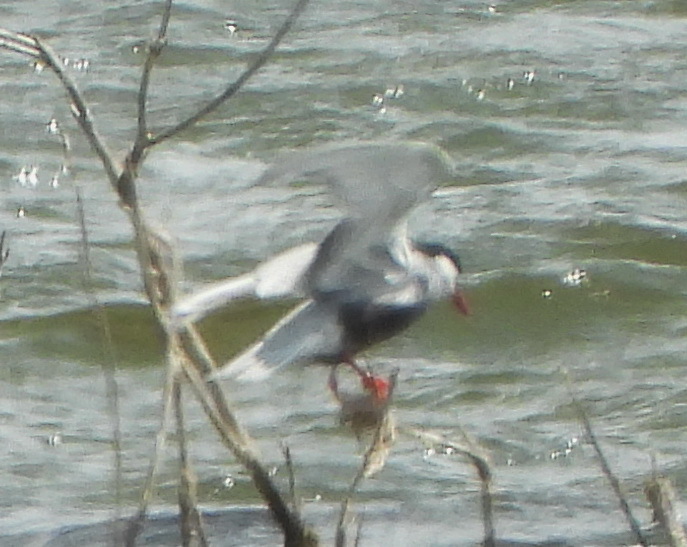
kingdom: Animalia
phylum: Chordata
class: Aves
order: Charadriiformes
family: Laridae
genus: Chlidonias
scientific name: Chlidonias hybrida
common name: Whiskered tern
